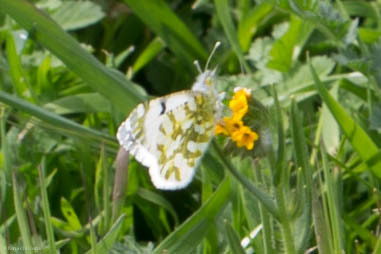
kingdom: Animalia
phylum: Arthropoda
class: Insecta
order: Lepidoptera
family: Pieridae
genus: Euchloe
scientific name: Euchloe ausonides
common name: Creamy marblewing
